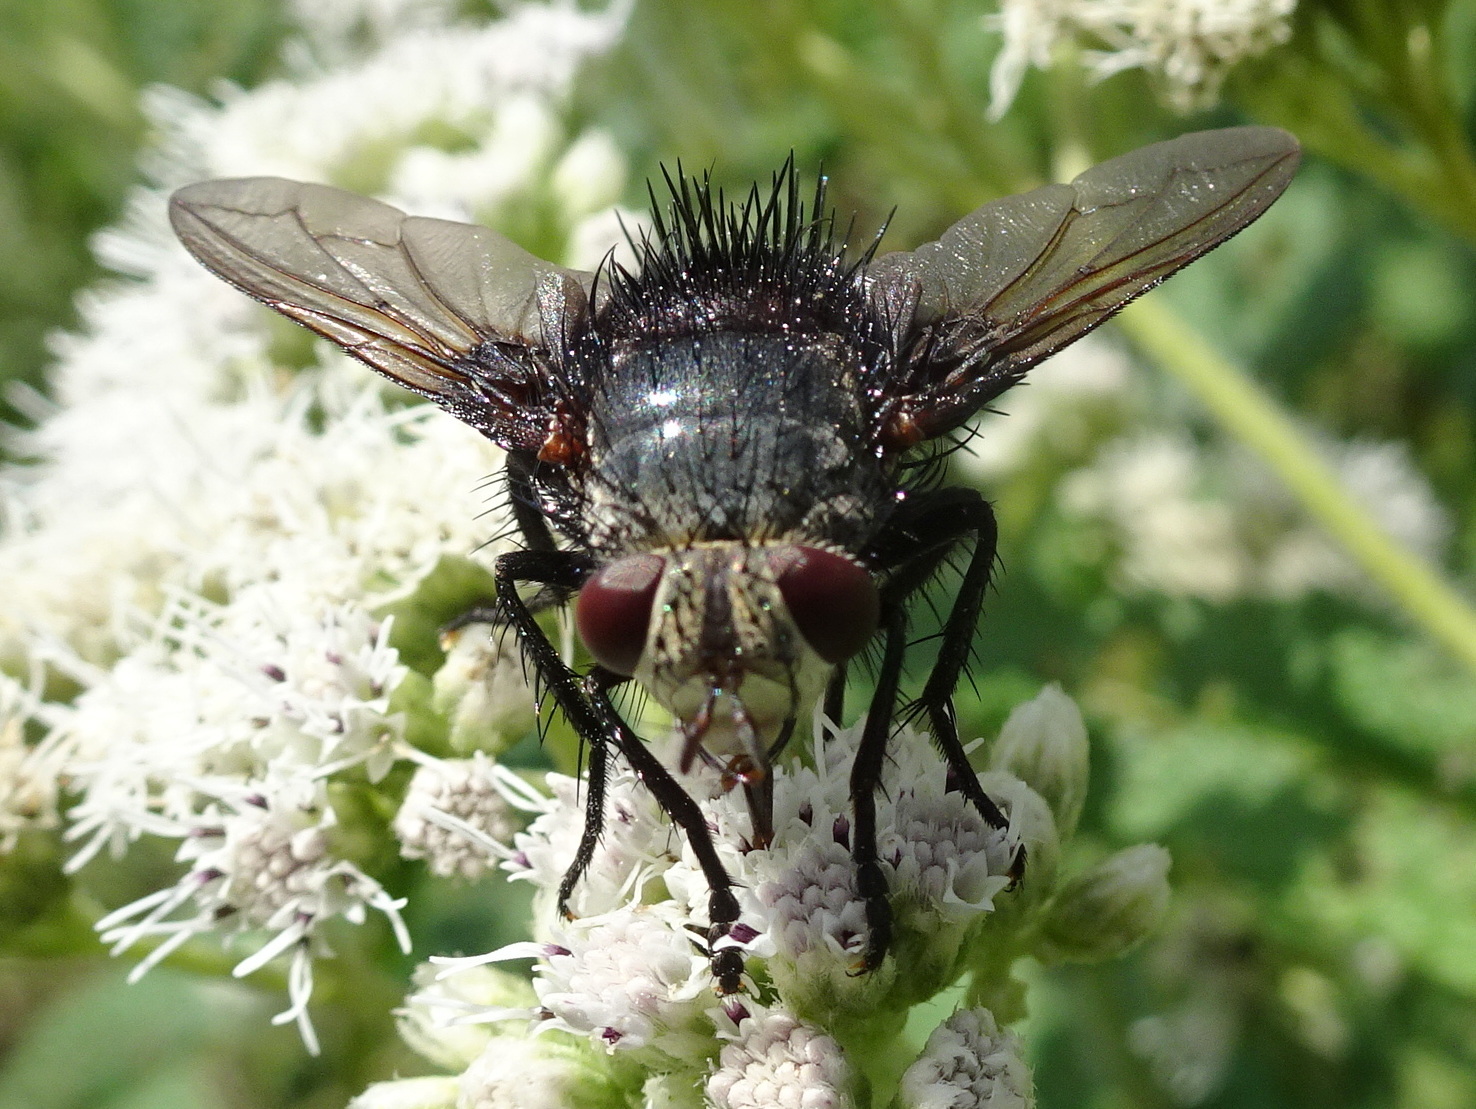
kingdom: Animalia
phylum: Arthropoda
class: Insecta
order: Diptera
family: Tachinidae
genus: Juriniopsis
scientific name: Juriniopsis adusta
